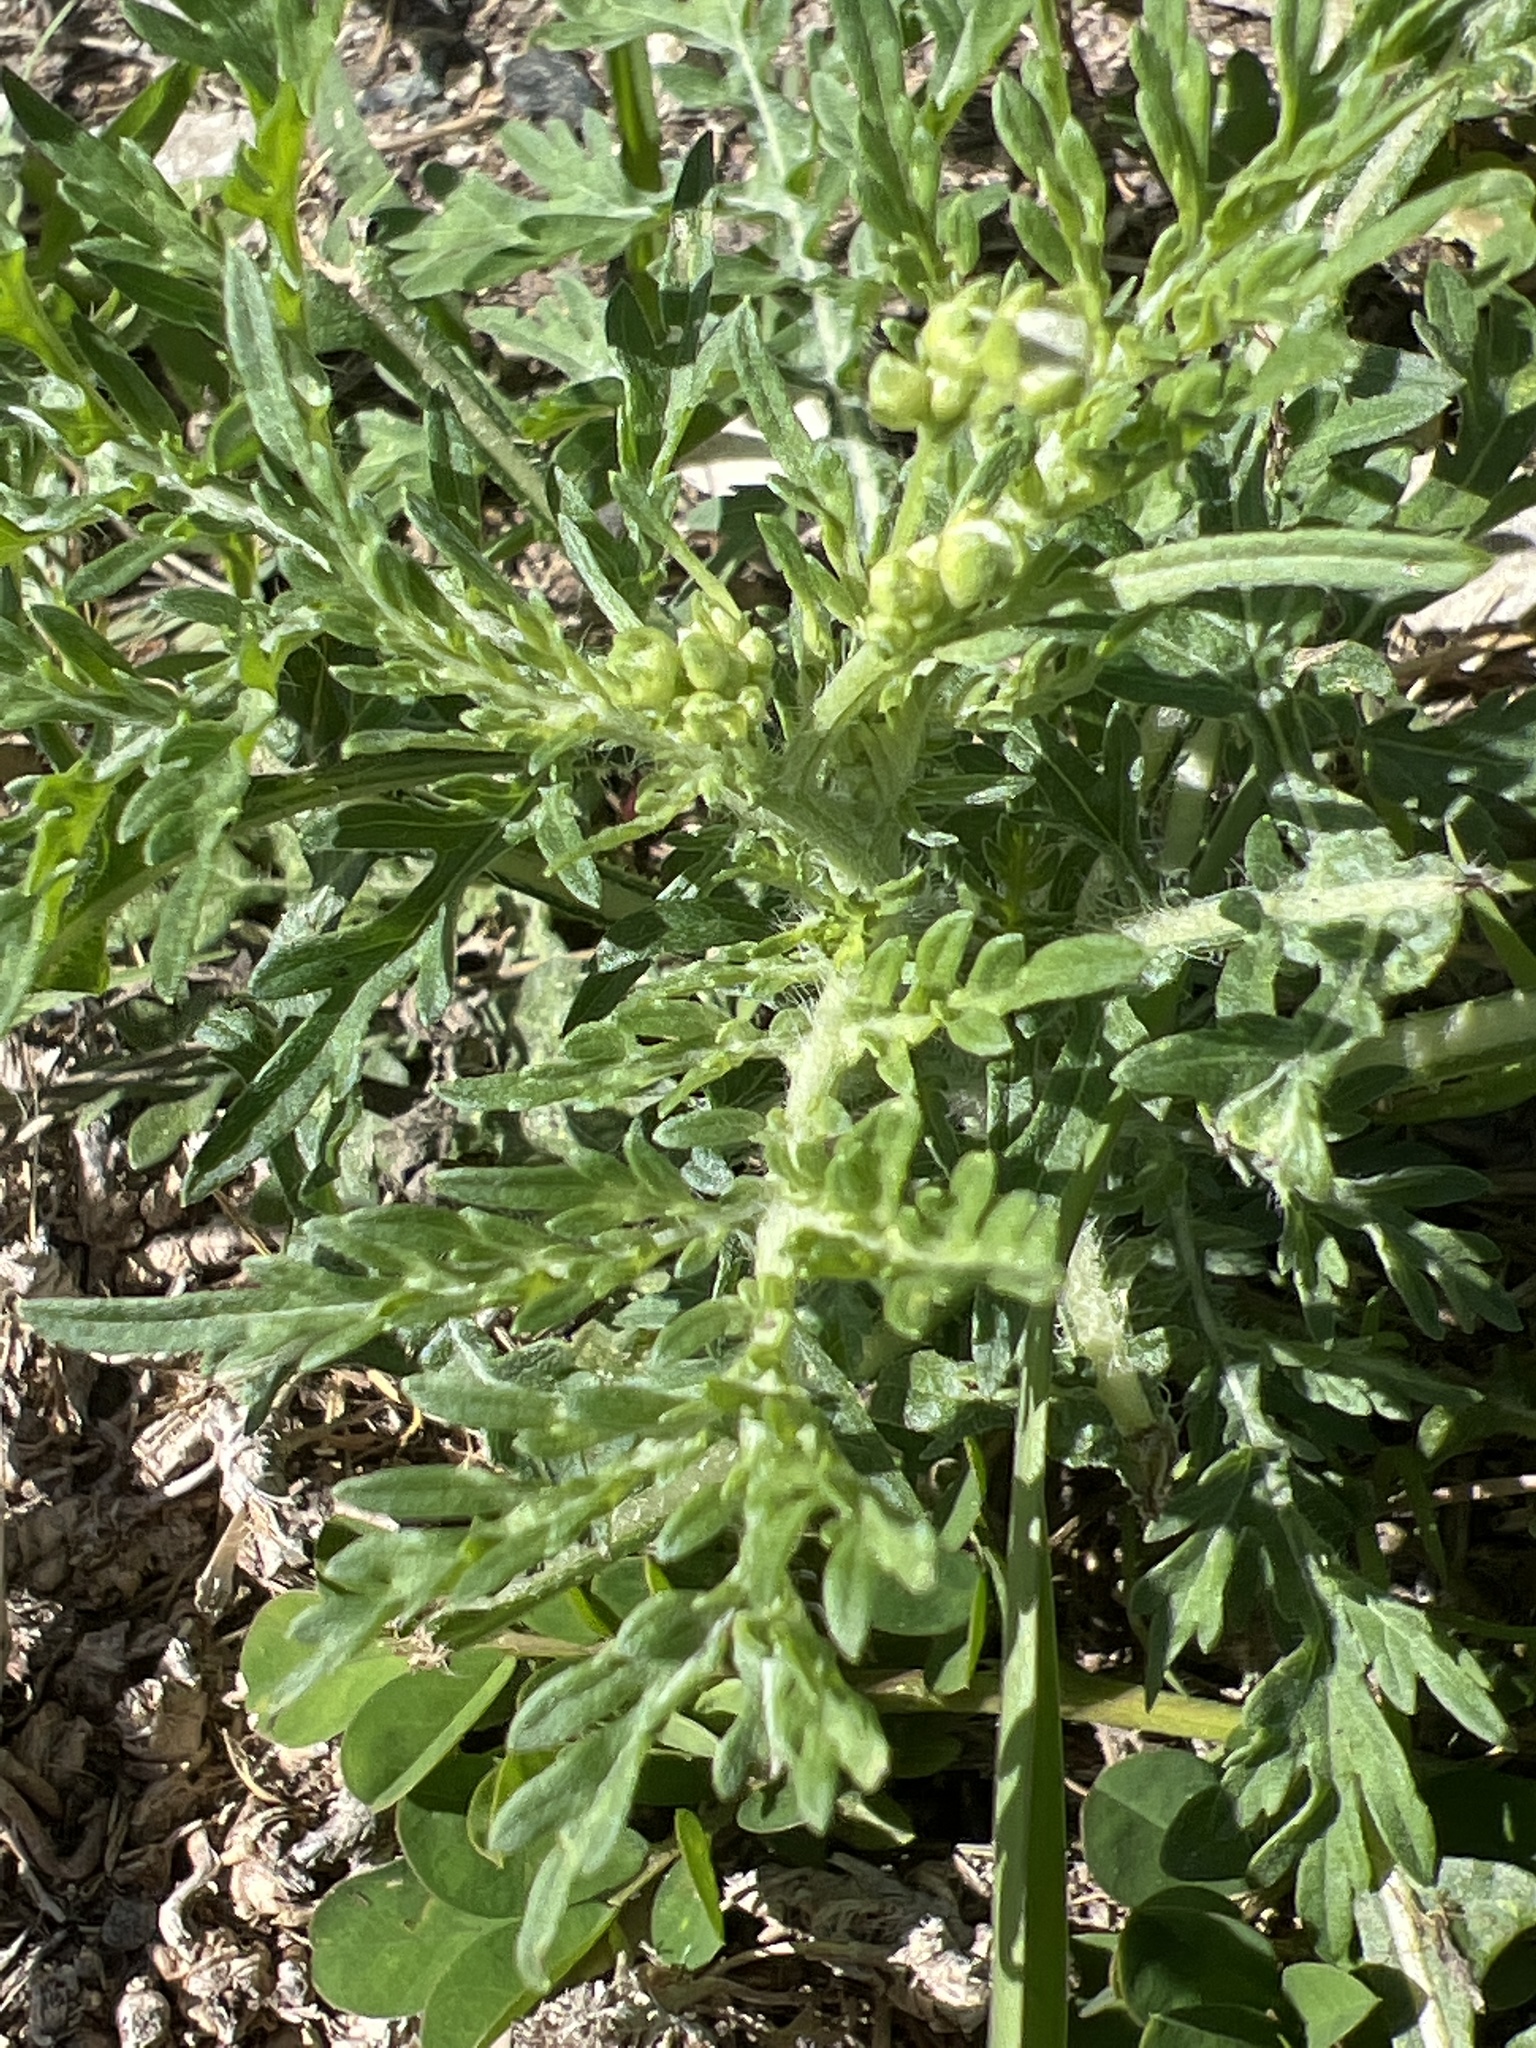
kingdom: Plantae
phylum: Tracheophyta
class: Magnoliopsida
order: Asterales
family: Asteraceae
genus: Parthenium
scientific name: Parthenium hysterophorus
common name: Santa maria feverfew
